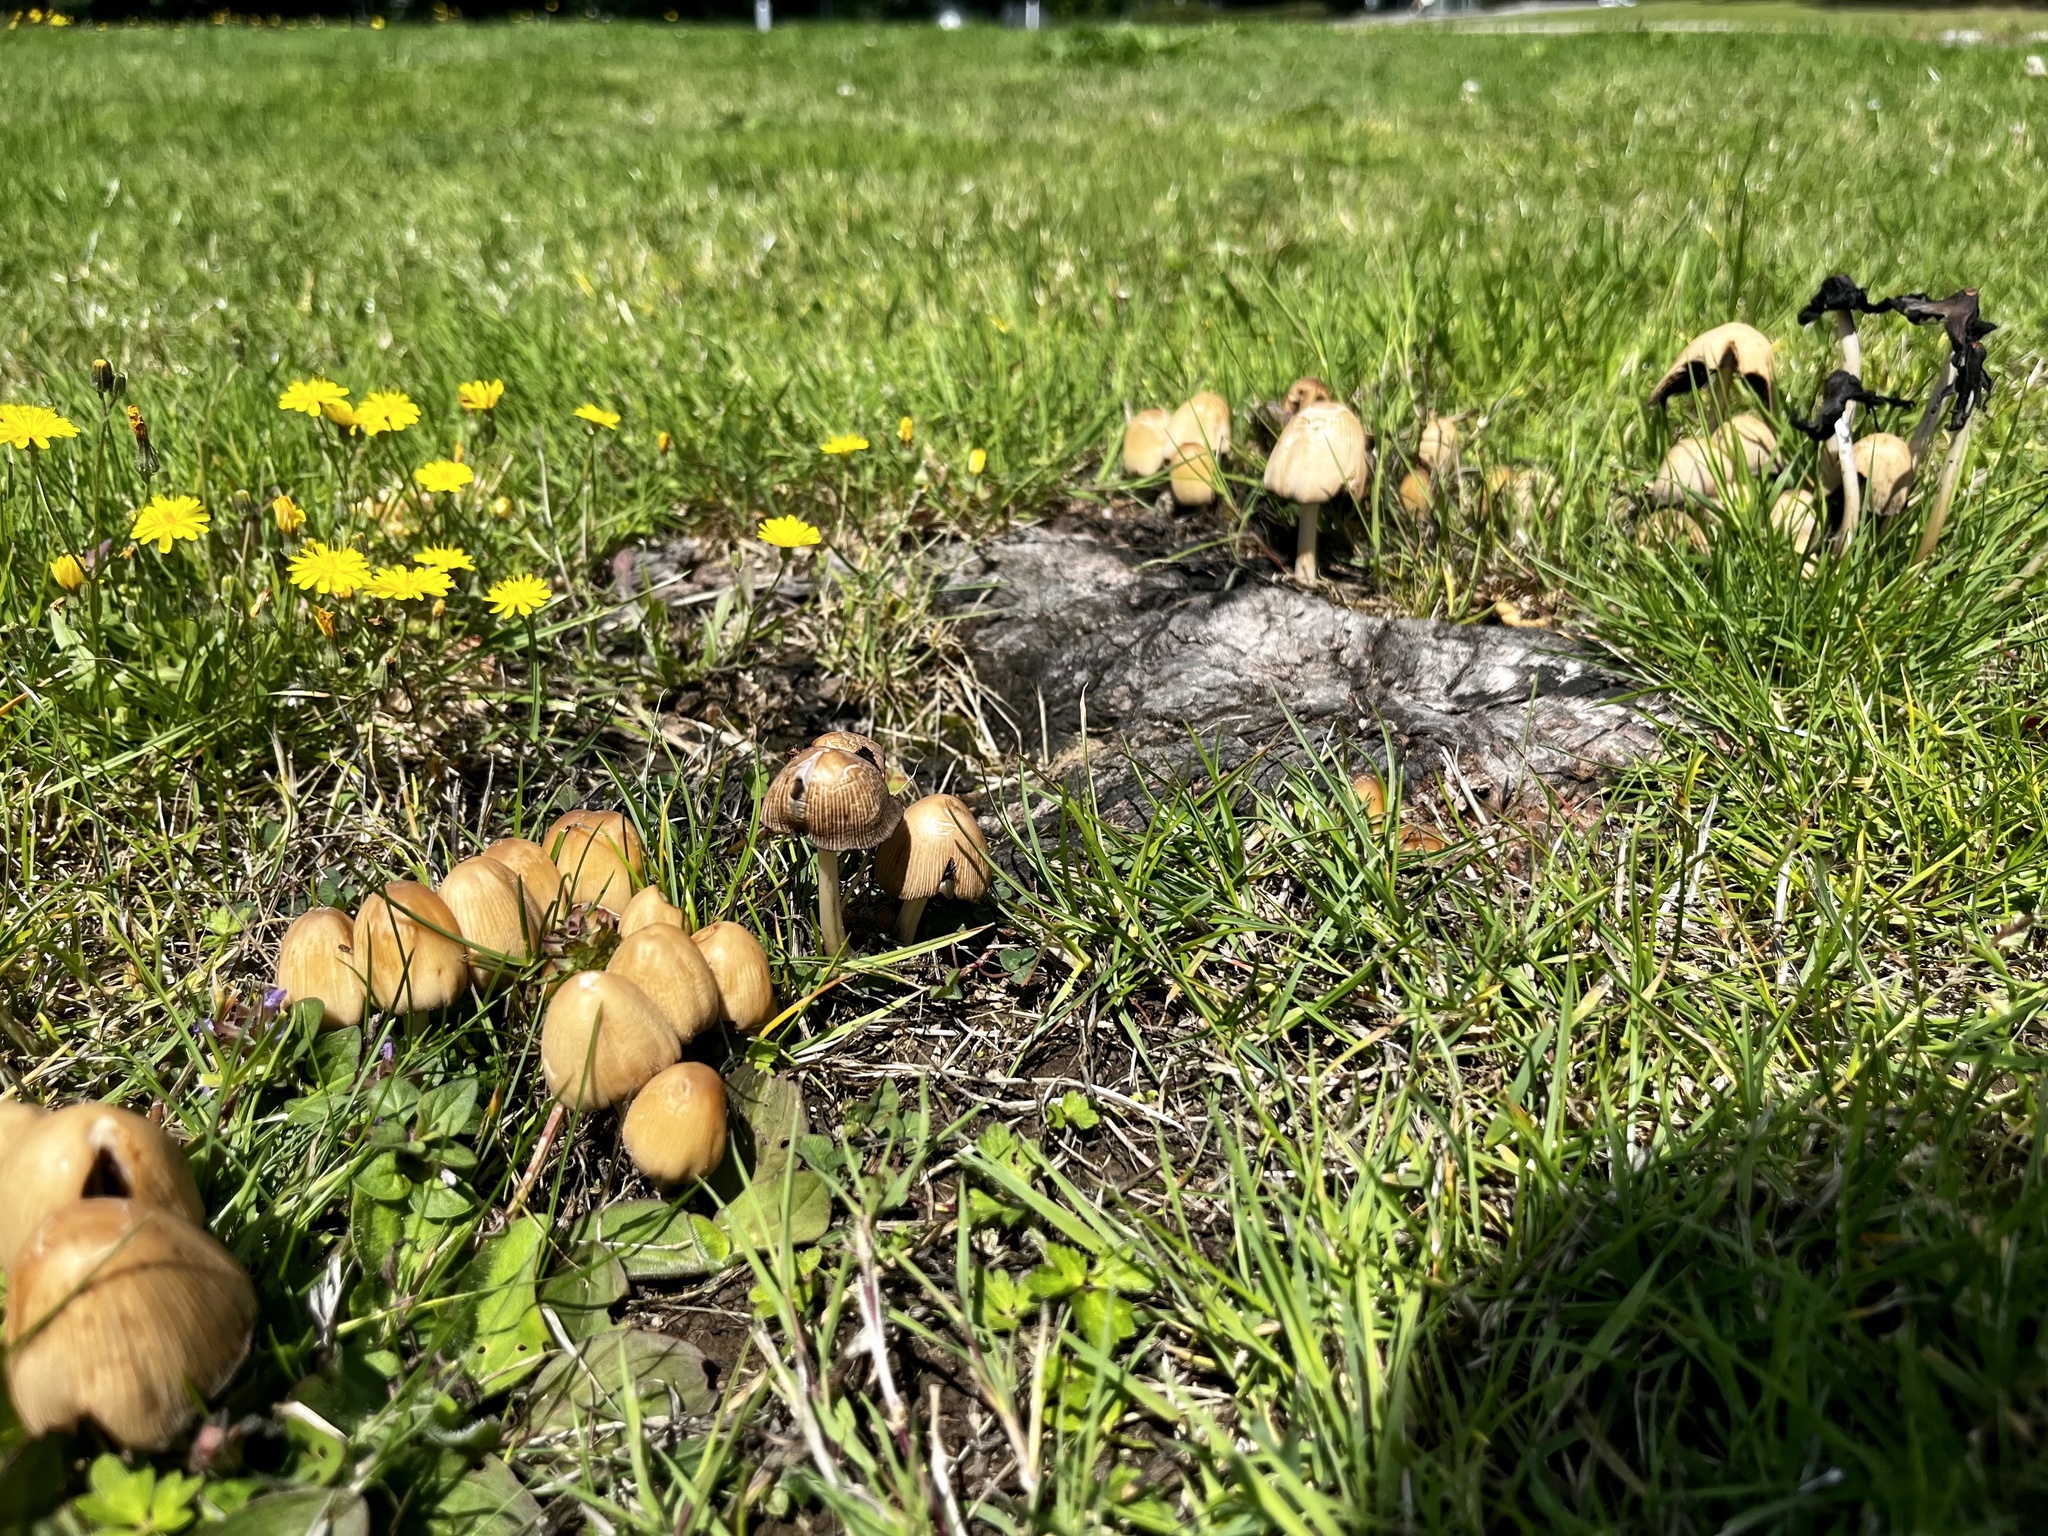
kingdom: Fungi
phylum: Basidiomycota
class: Agaricomycetes
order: Agaricales
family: Psathyrellaceae
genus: Coprinellus
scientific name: Coprinellus micaceus
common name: Glistening ink-cap
